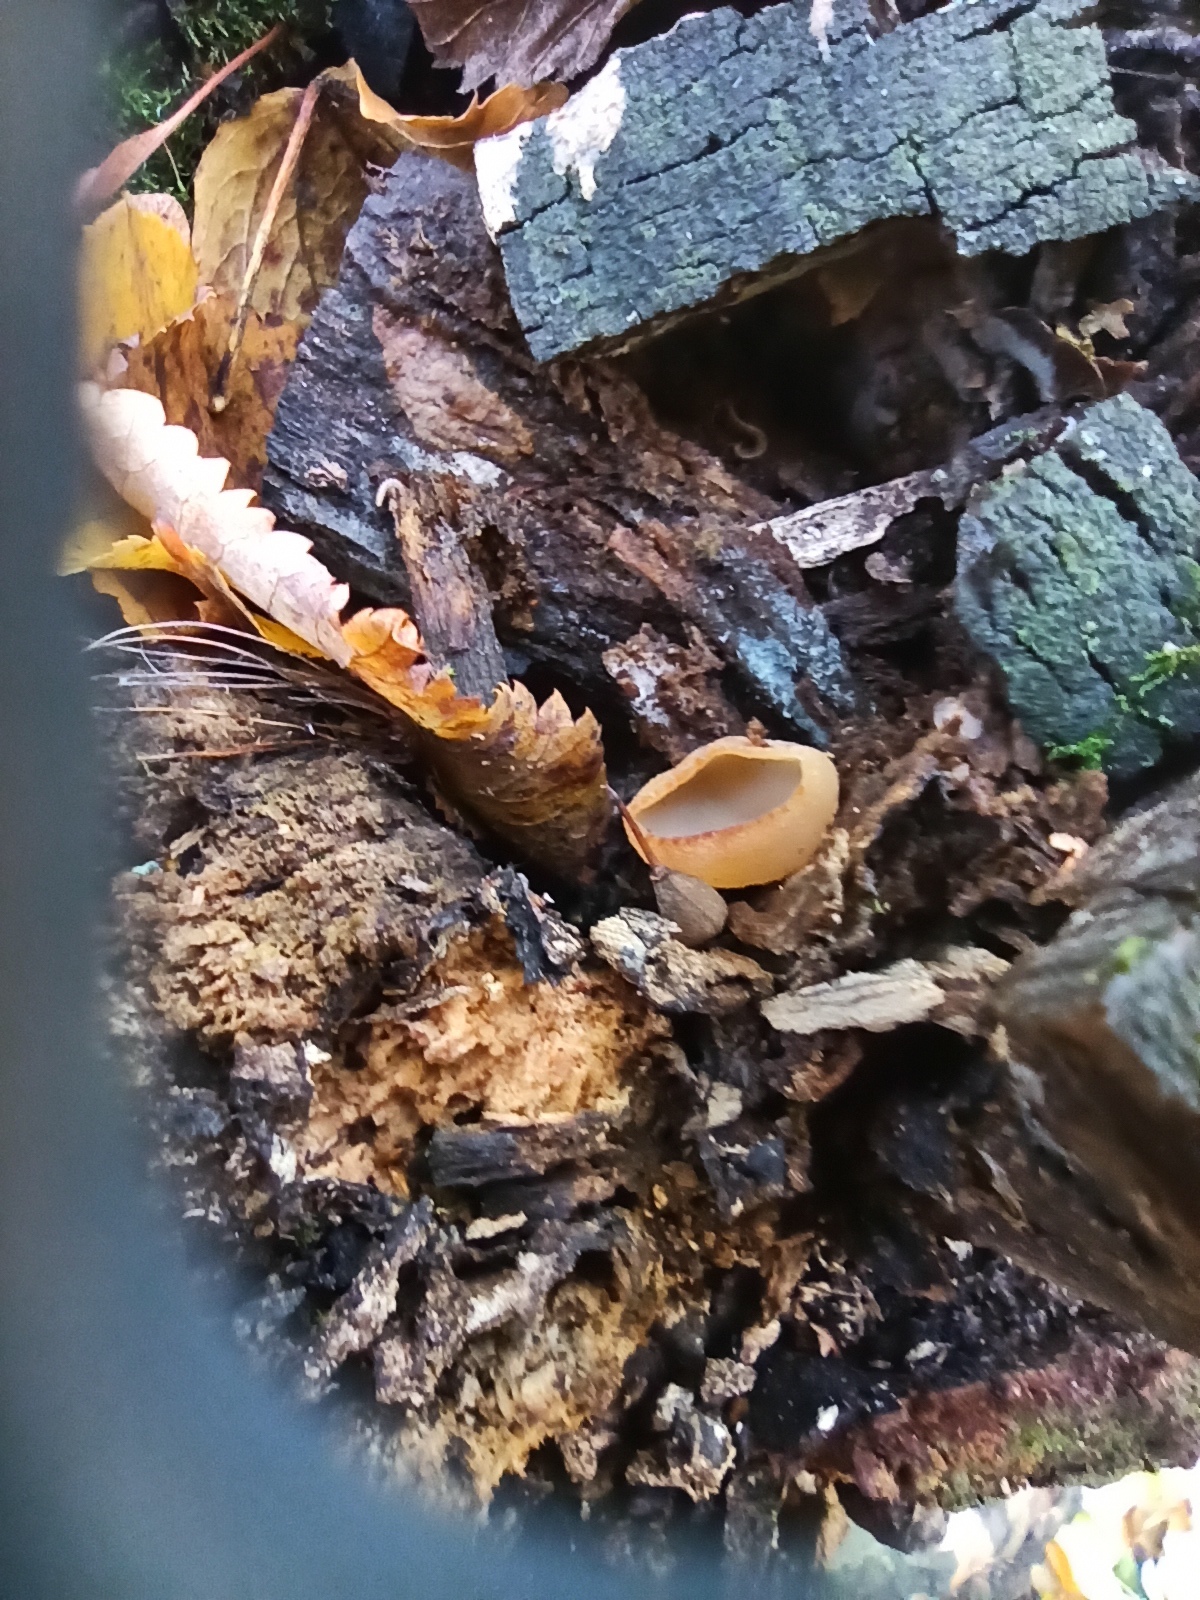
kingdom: Fungi
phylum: Ascomycota
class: Pezizomycetes
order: Pezizales
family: Pezizaceae
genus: Peziza
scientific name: Peziza varia
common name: Layered cup
